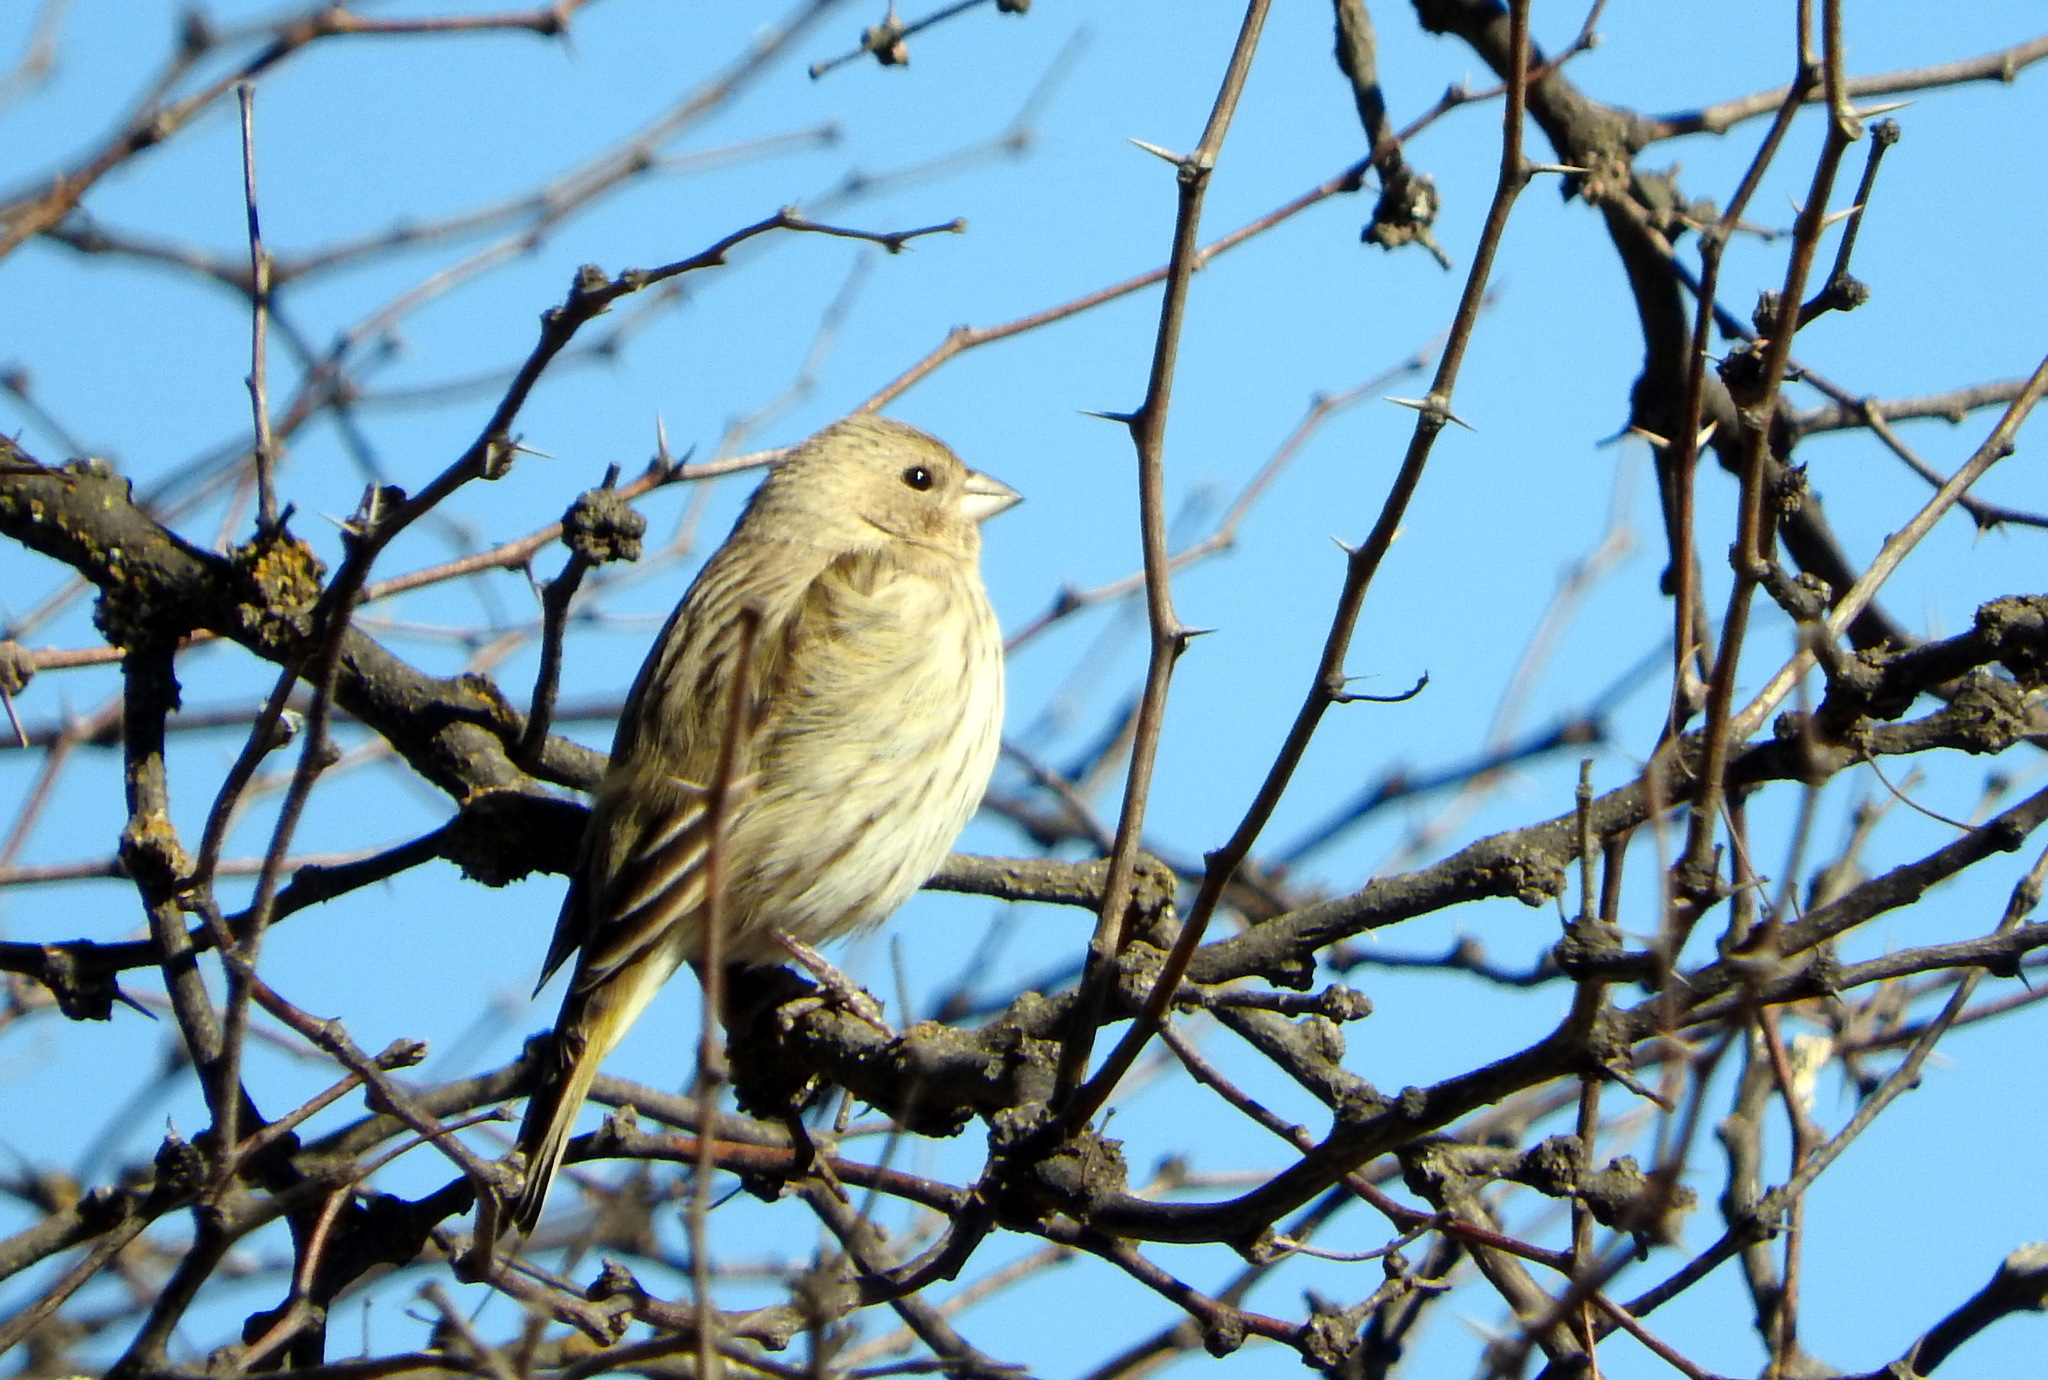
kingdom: Animalia
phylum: Chordata
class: Aves
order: Passeriformes
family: Thraupidae
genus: Sicalis
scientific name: Sicalis flaveola
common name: Saffron finch
